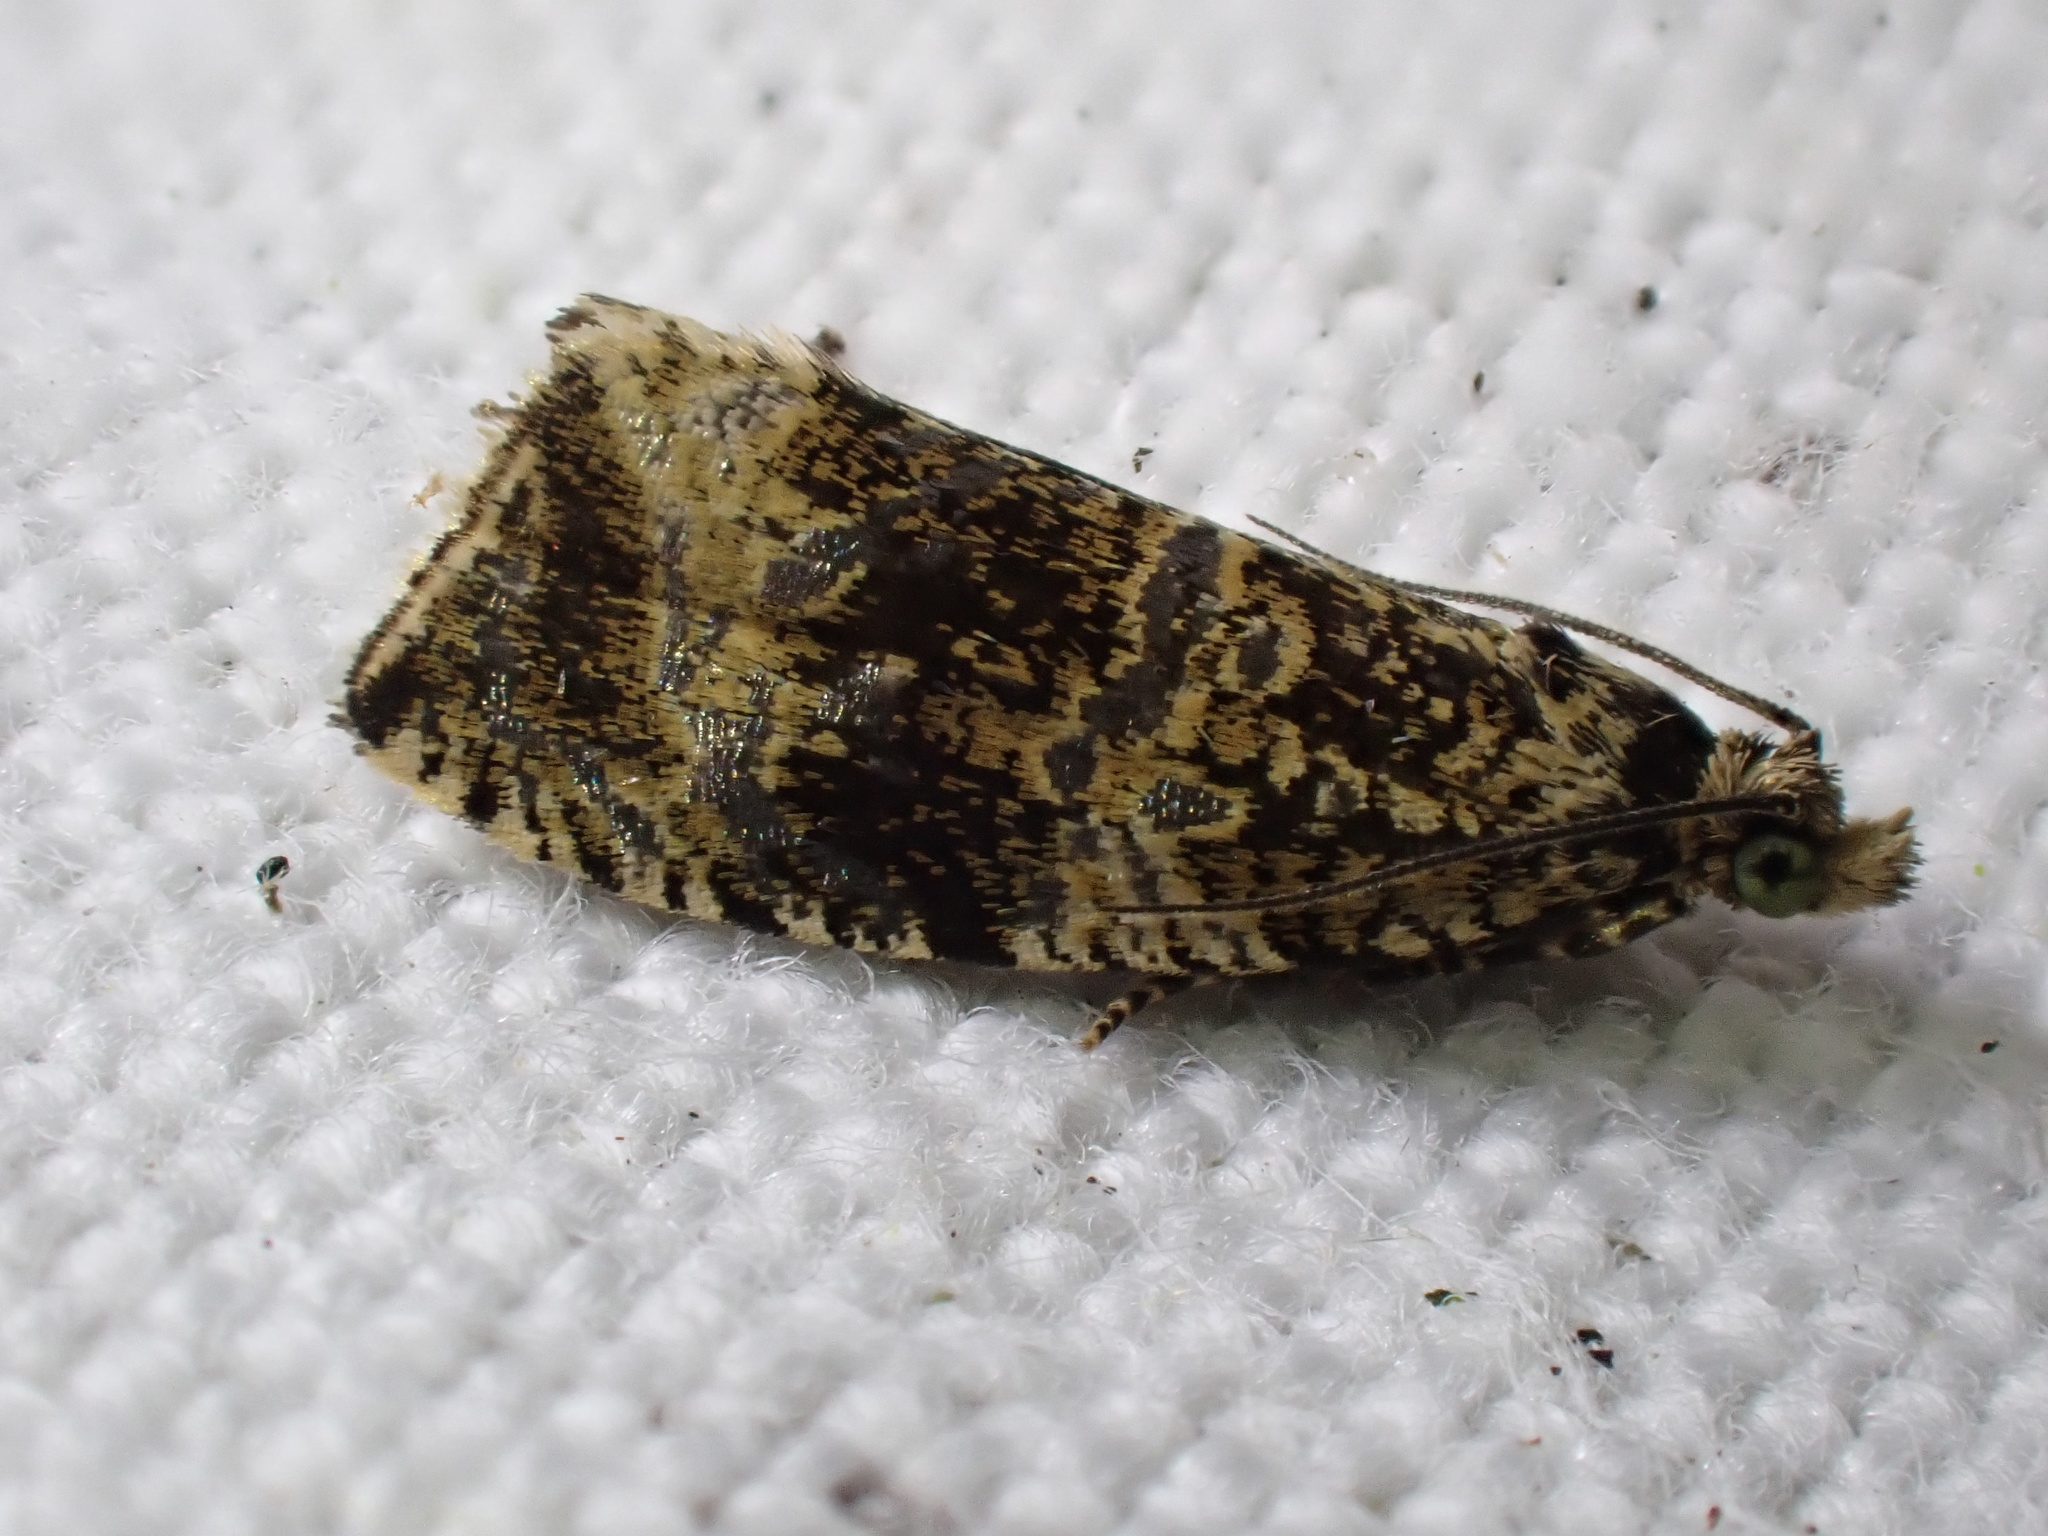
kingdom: Animalia
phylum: Arthropoda
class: Insecta
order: Lepidoptera
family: Tortricidae
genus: Syricoris
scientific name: Syricoris lacunana
